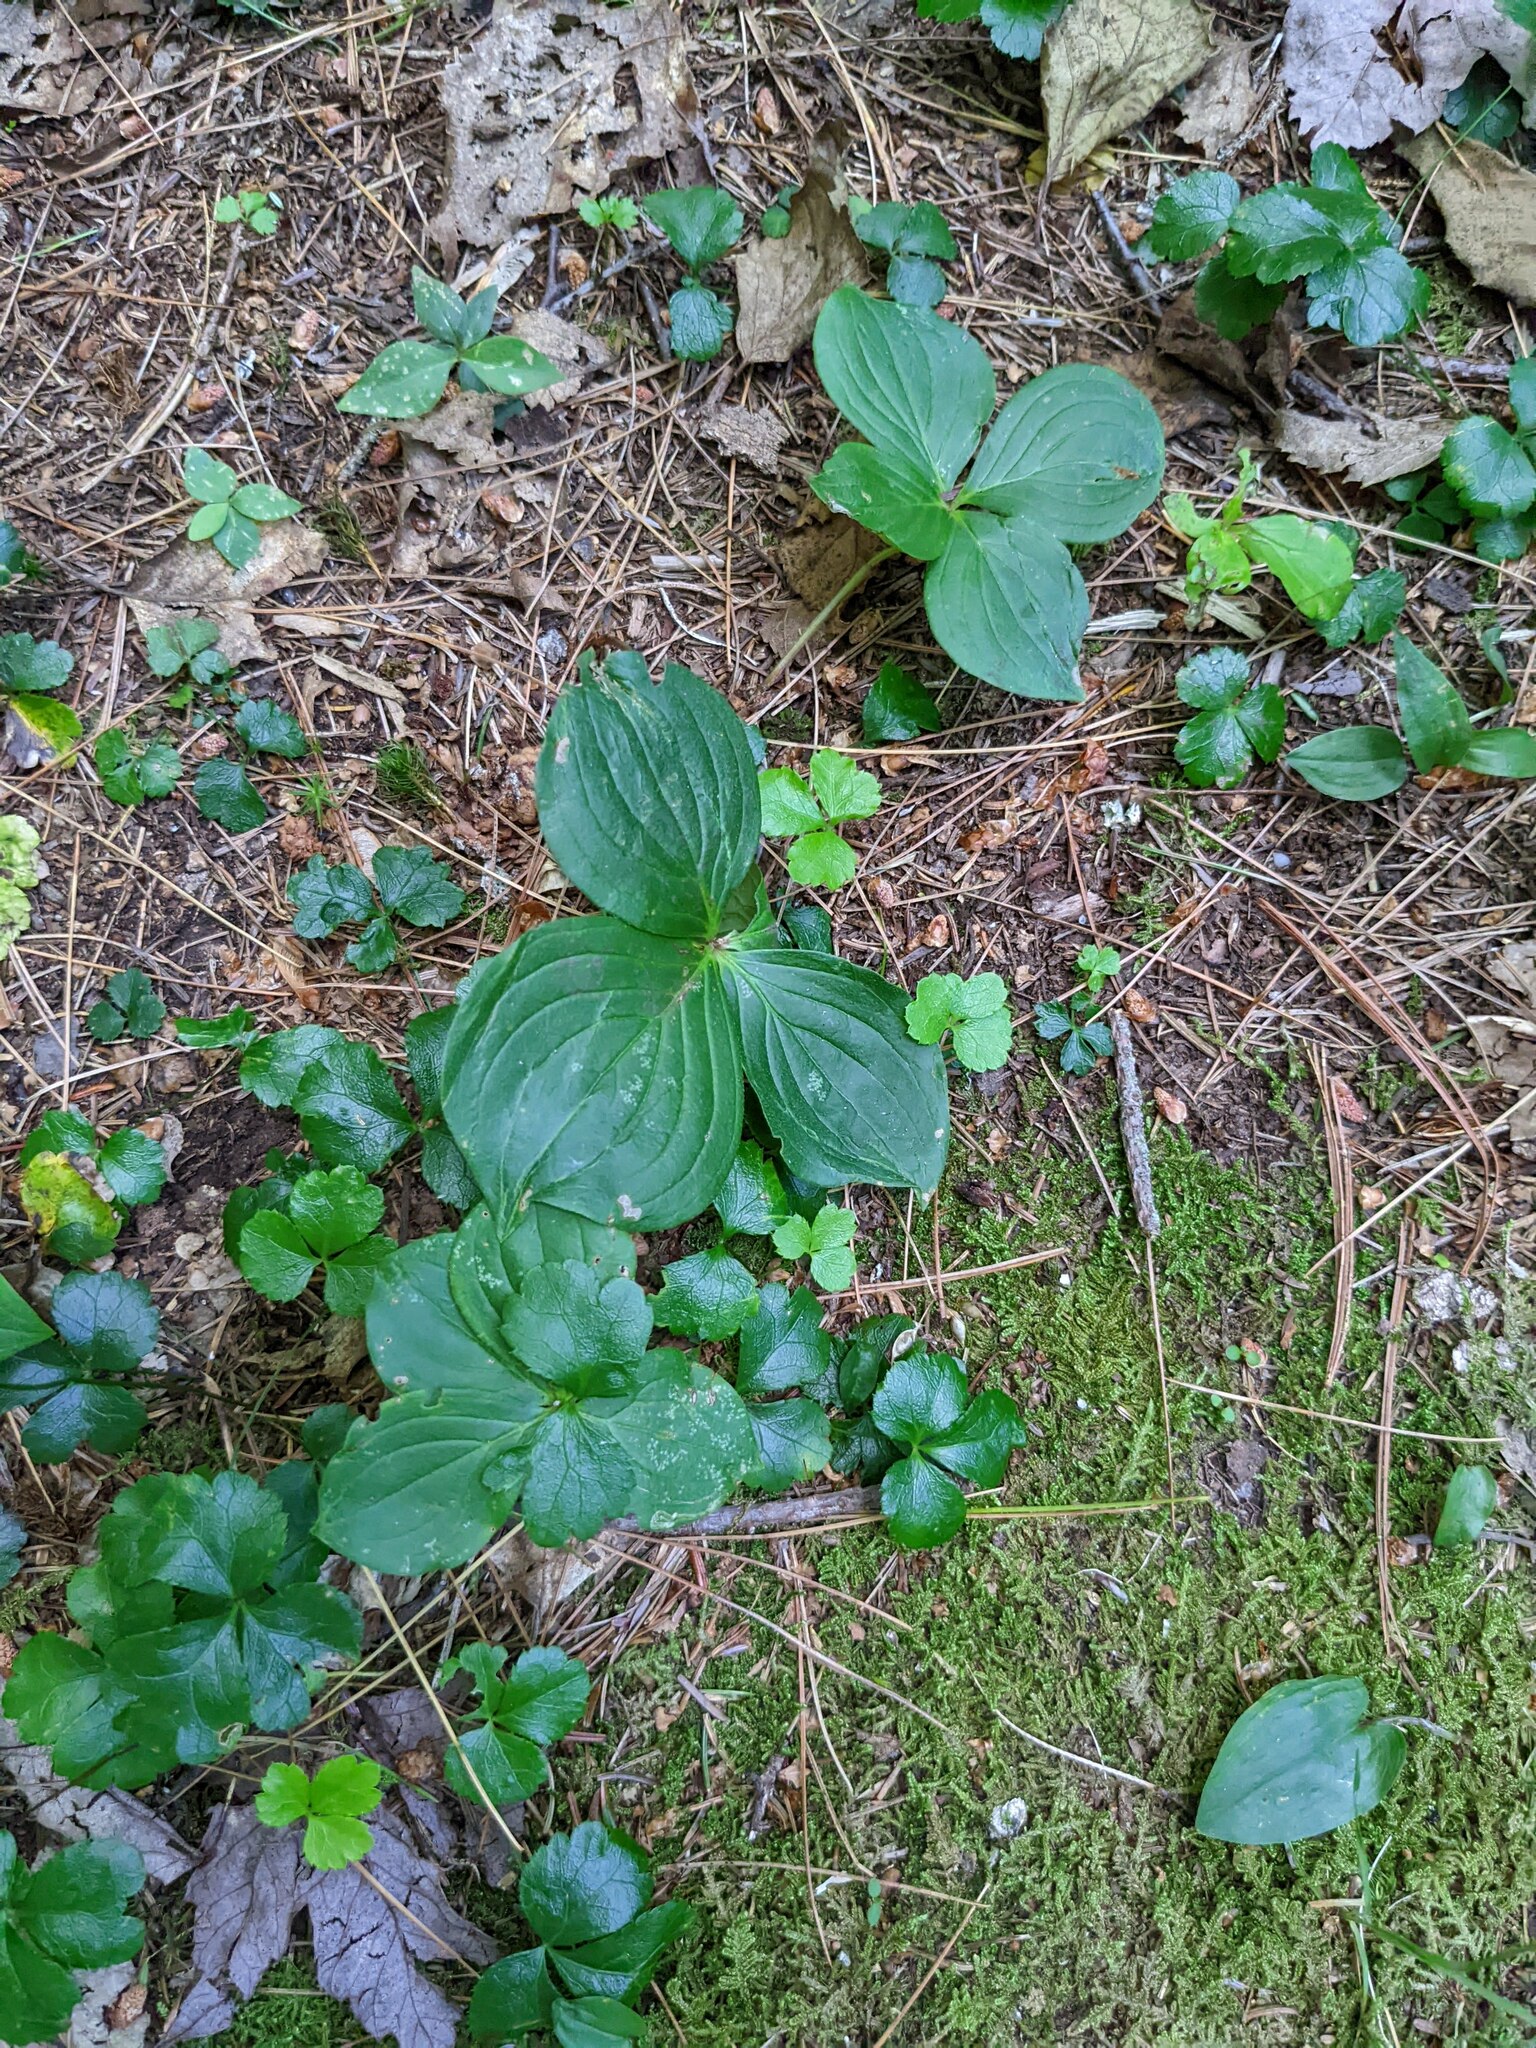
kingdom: Plantae
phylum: Tracheophyta
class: Magnoliopsida
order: Cornales
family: Cornaceae
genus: Cornus
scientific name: Cornus canadensis
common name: Creeping dogwood
